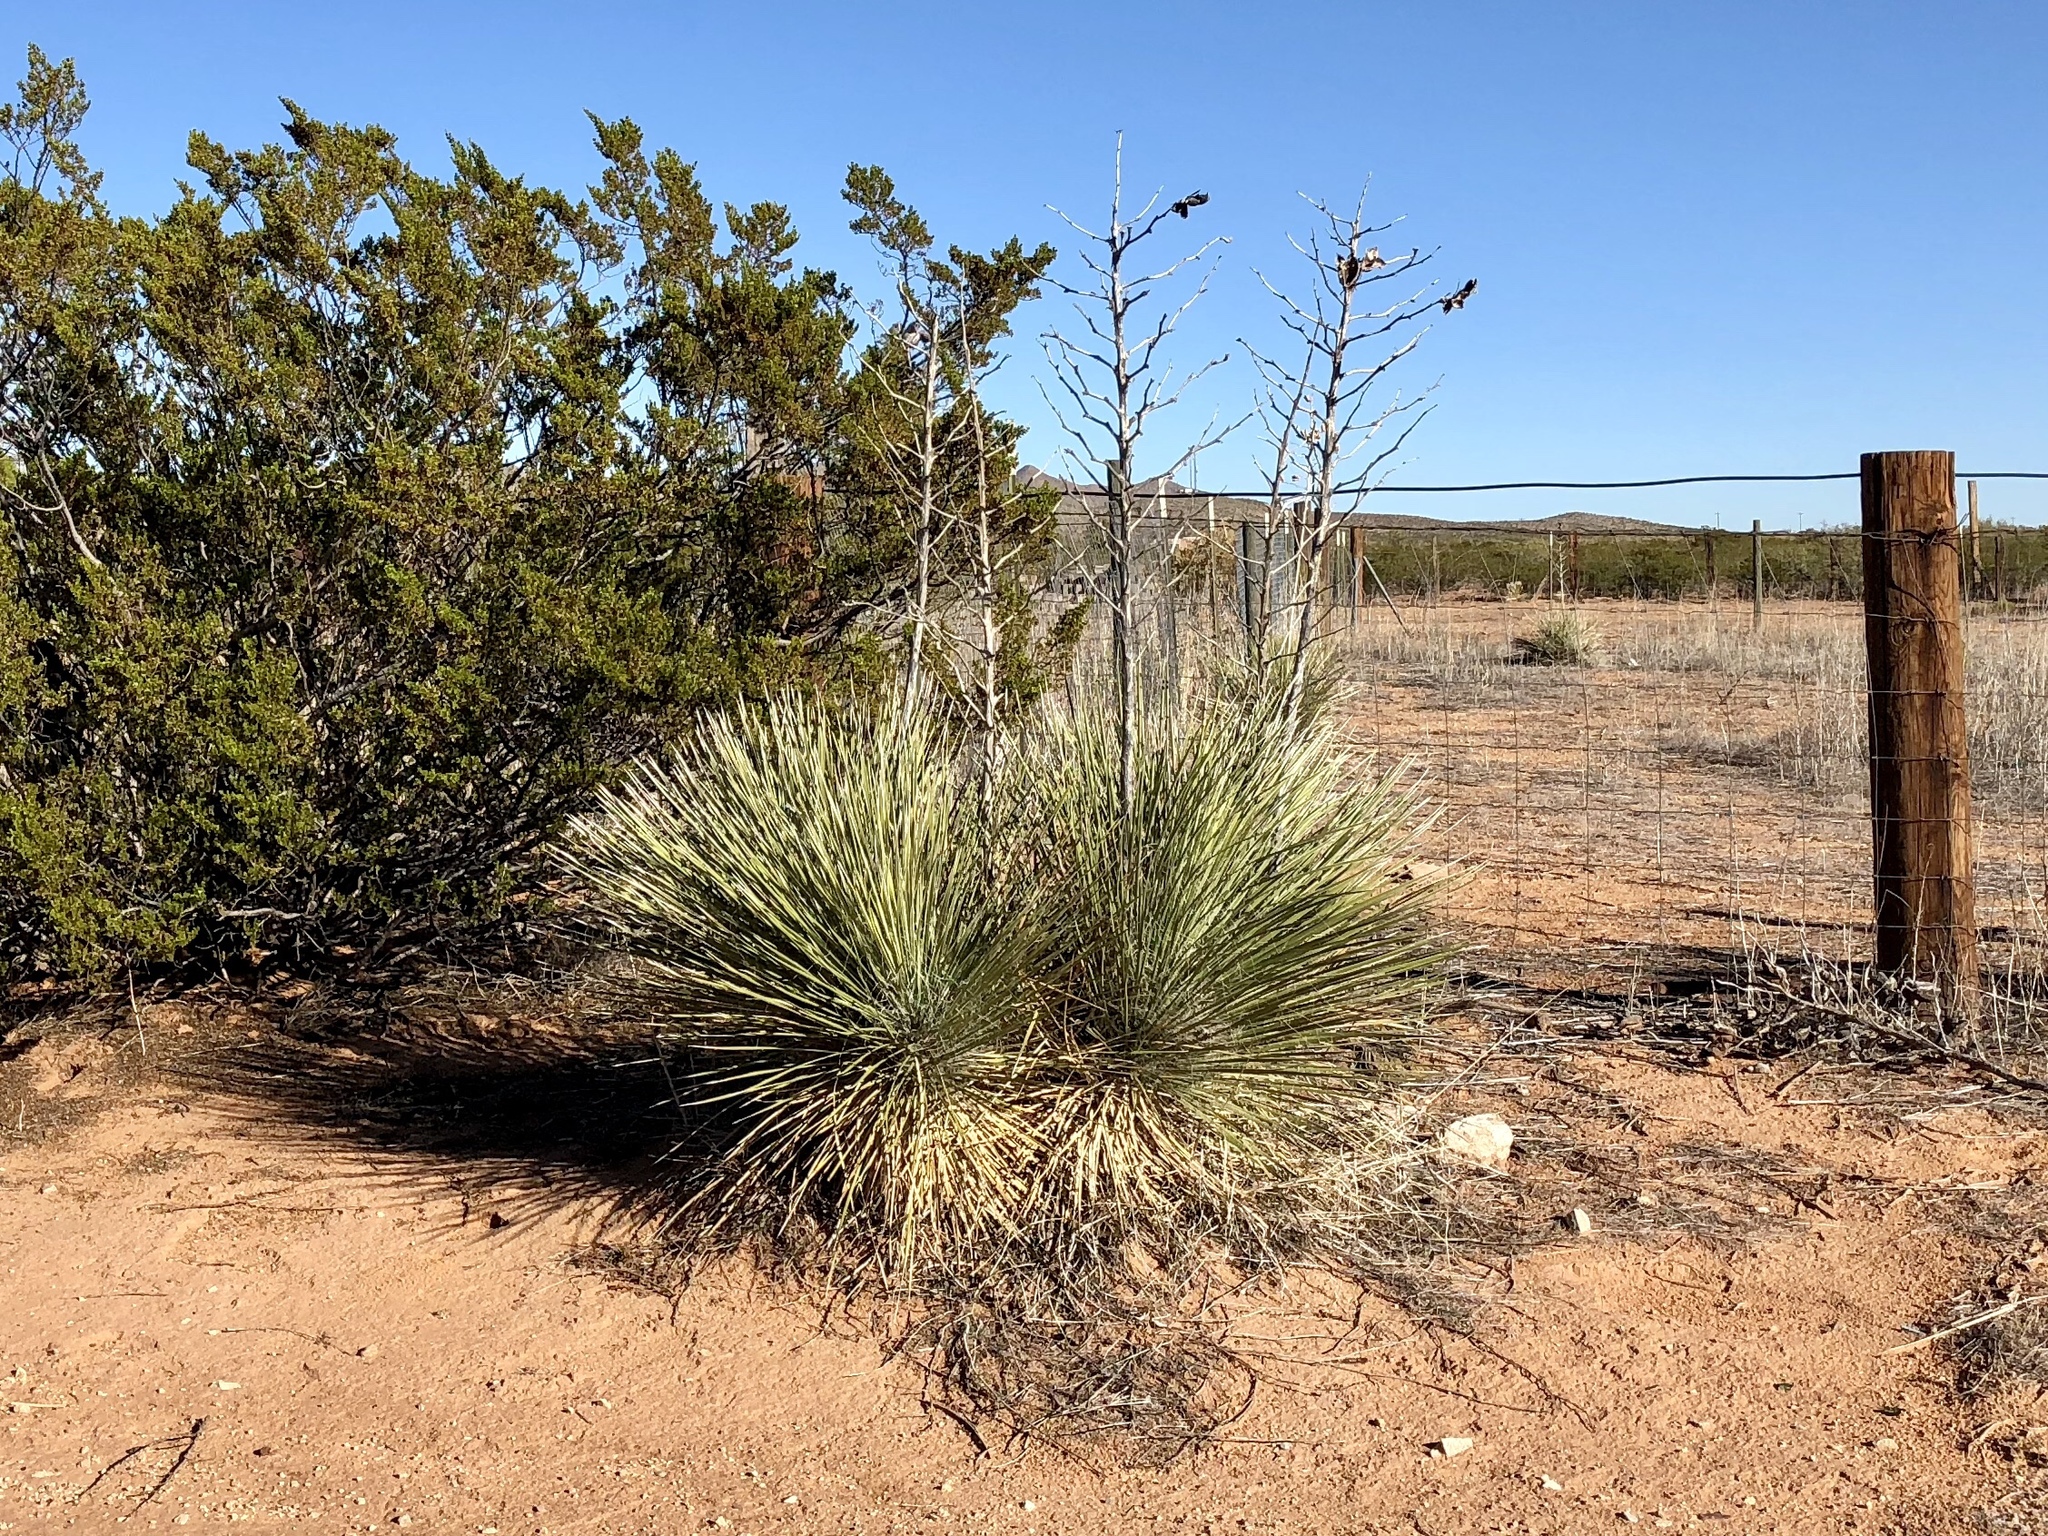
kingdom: Plantae
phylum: Tracheophyta
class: Liliopsida
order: Asparagales
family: Asparagaceae
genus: Yucca
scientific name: Yucca elata
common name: Palmella
